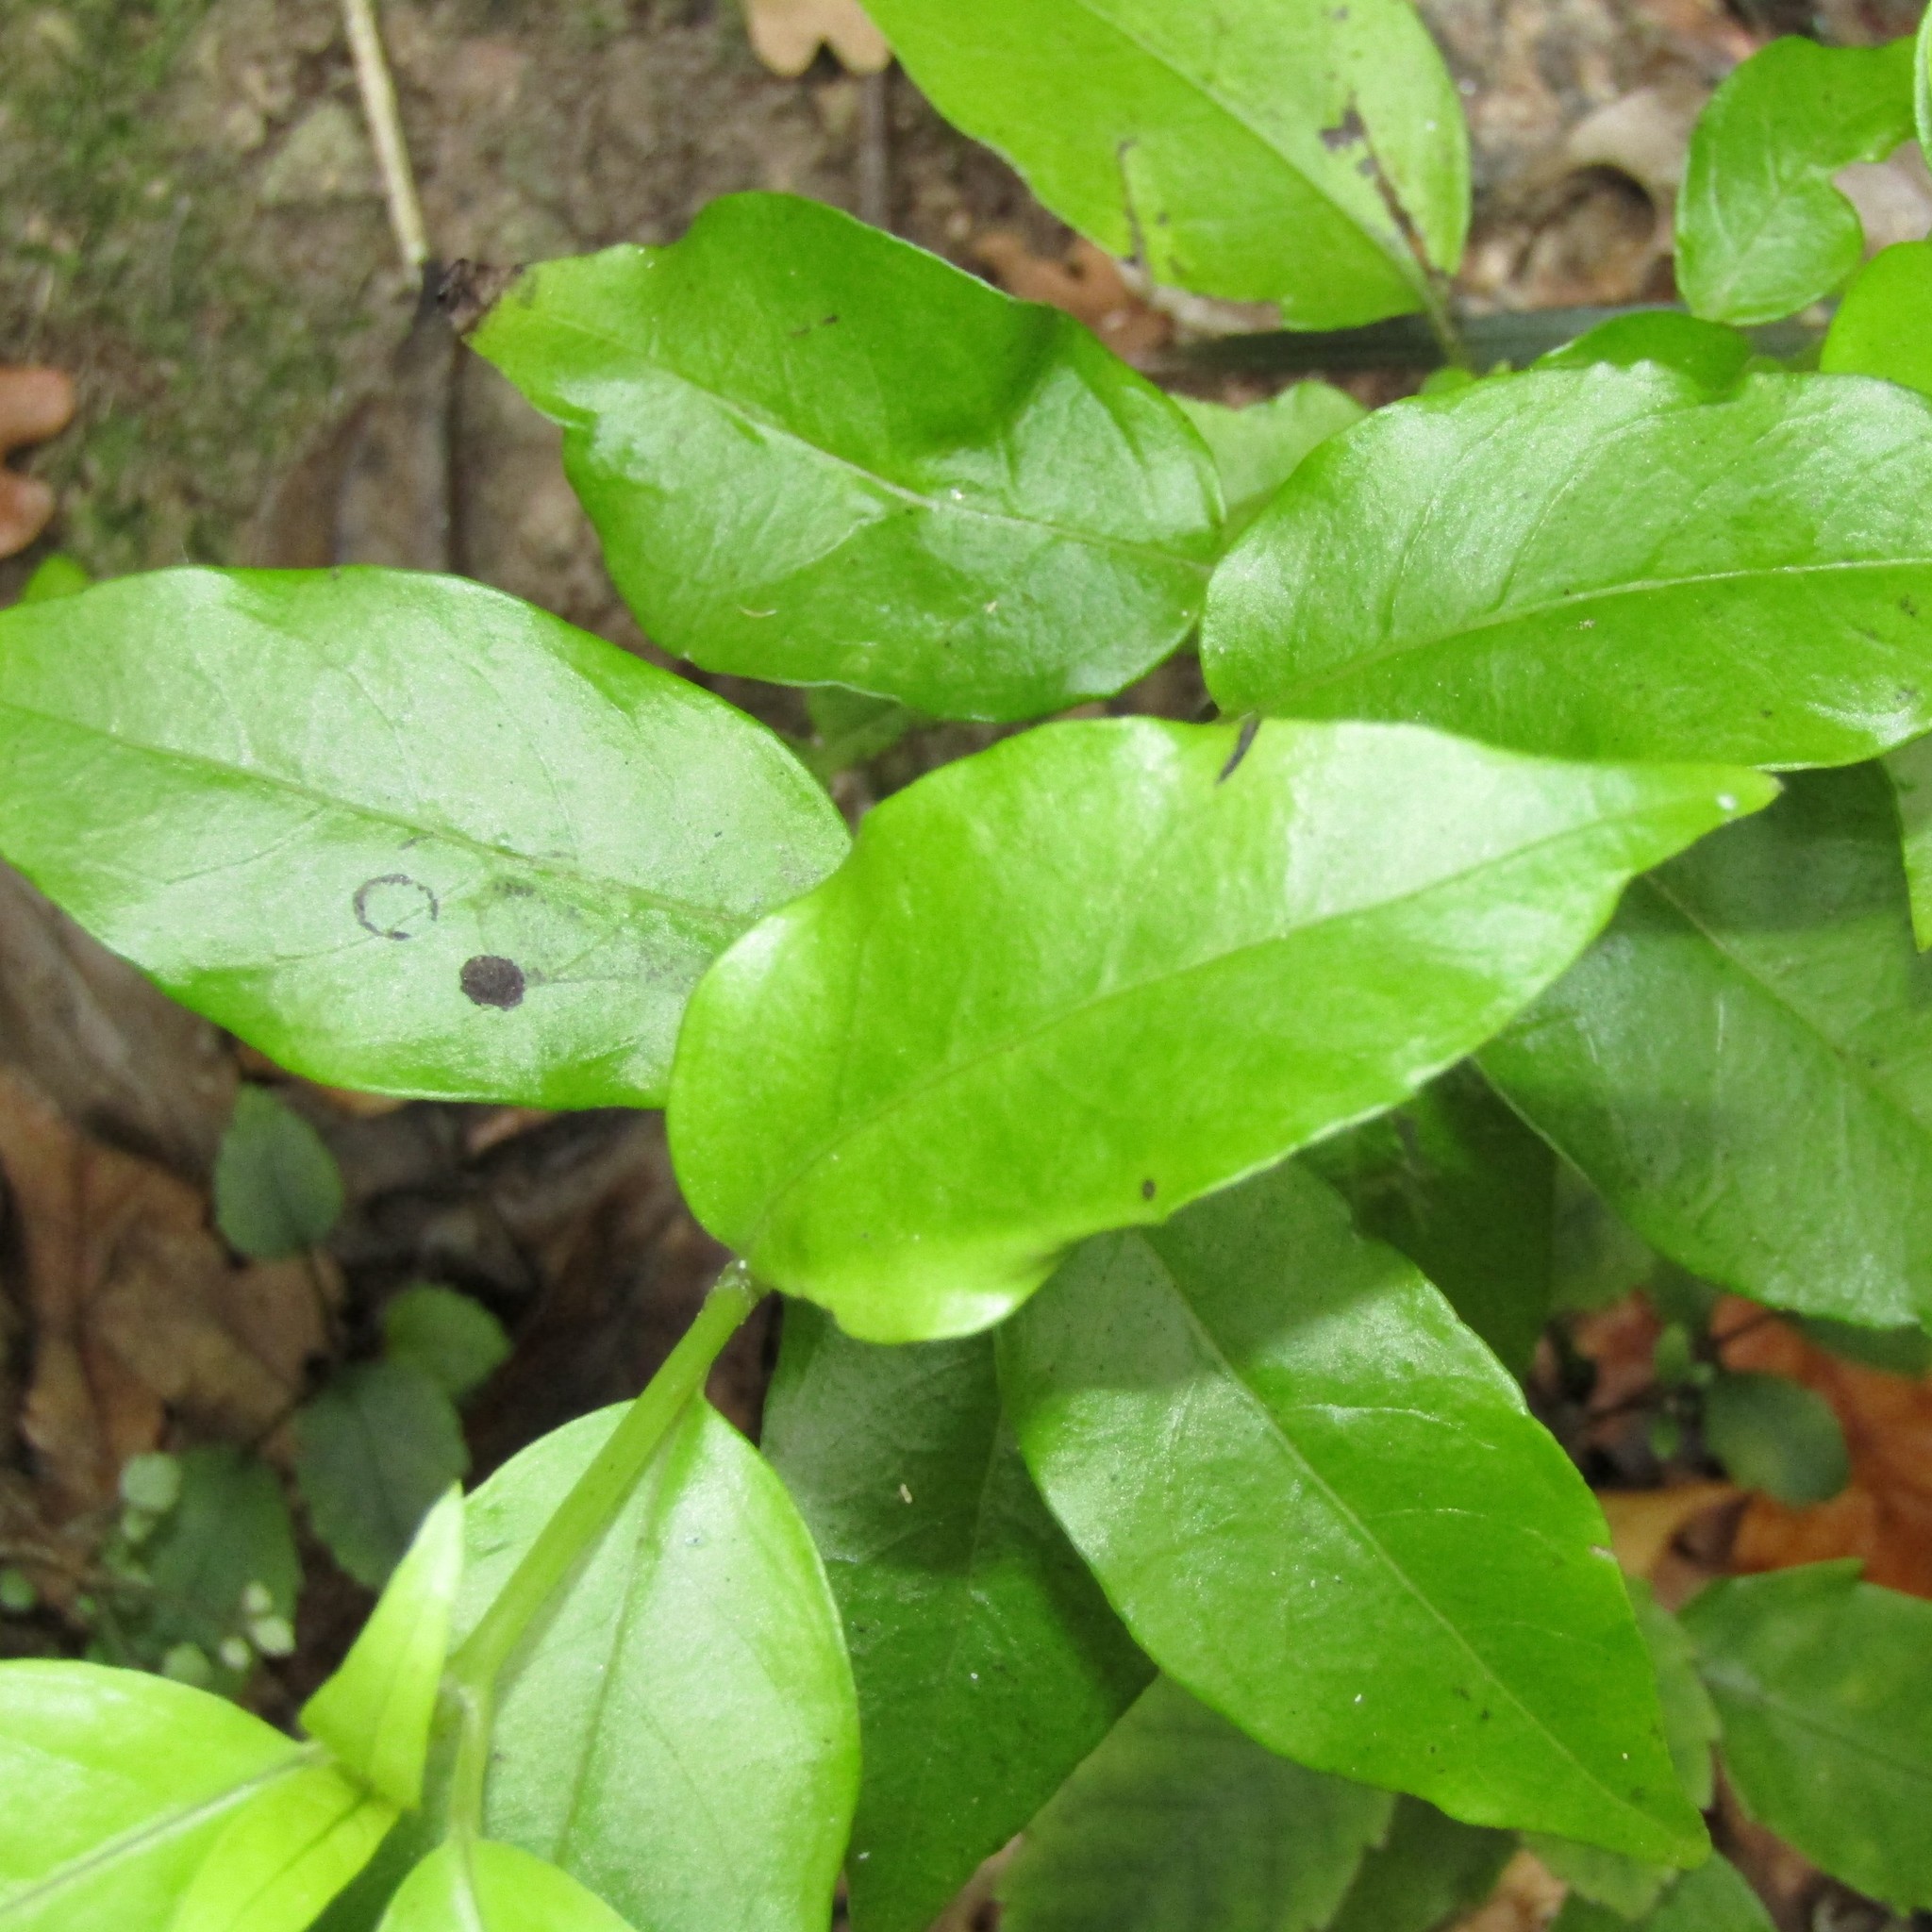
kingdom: Plantae
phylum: Tracheophyta
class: Magnoliopsida
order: Gentianales
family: Loganiaceae
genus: Geniostoma
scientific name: Geniostoma ligustrifolium
